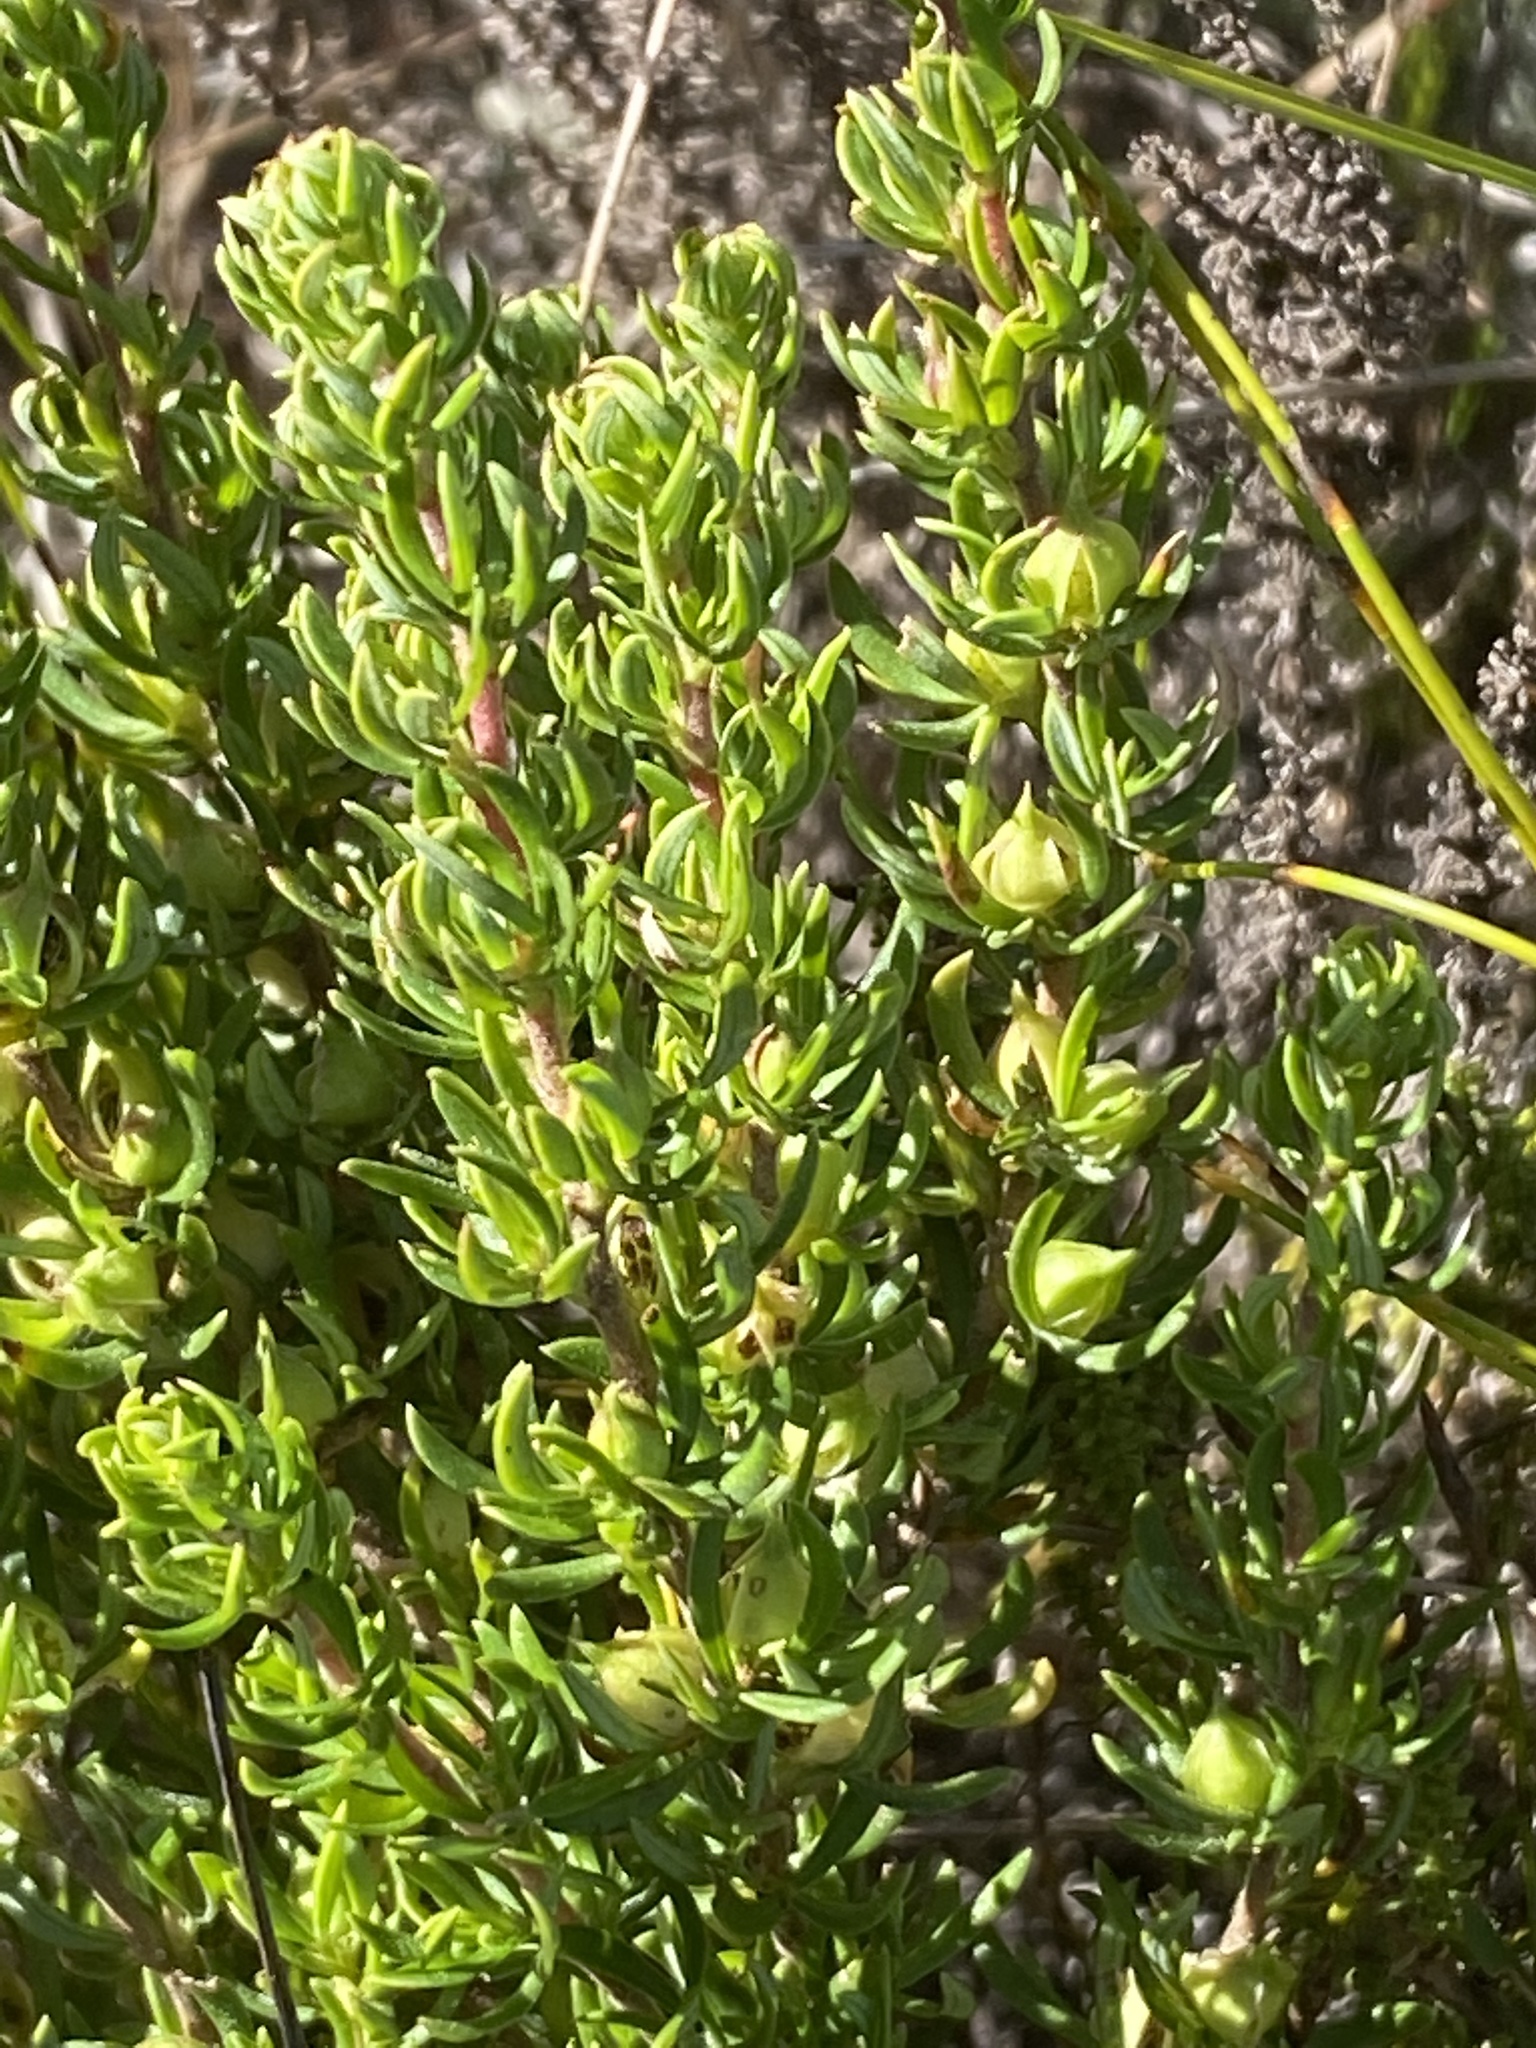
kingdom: Plantae
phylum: Tracheophyta
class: Magnoliopsida
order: Gentianales
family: Rubiaceae
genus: Anthospermum
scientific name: Anthospermum spathulatum
